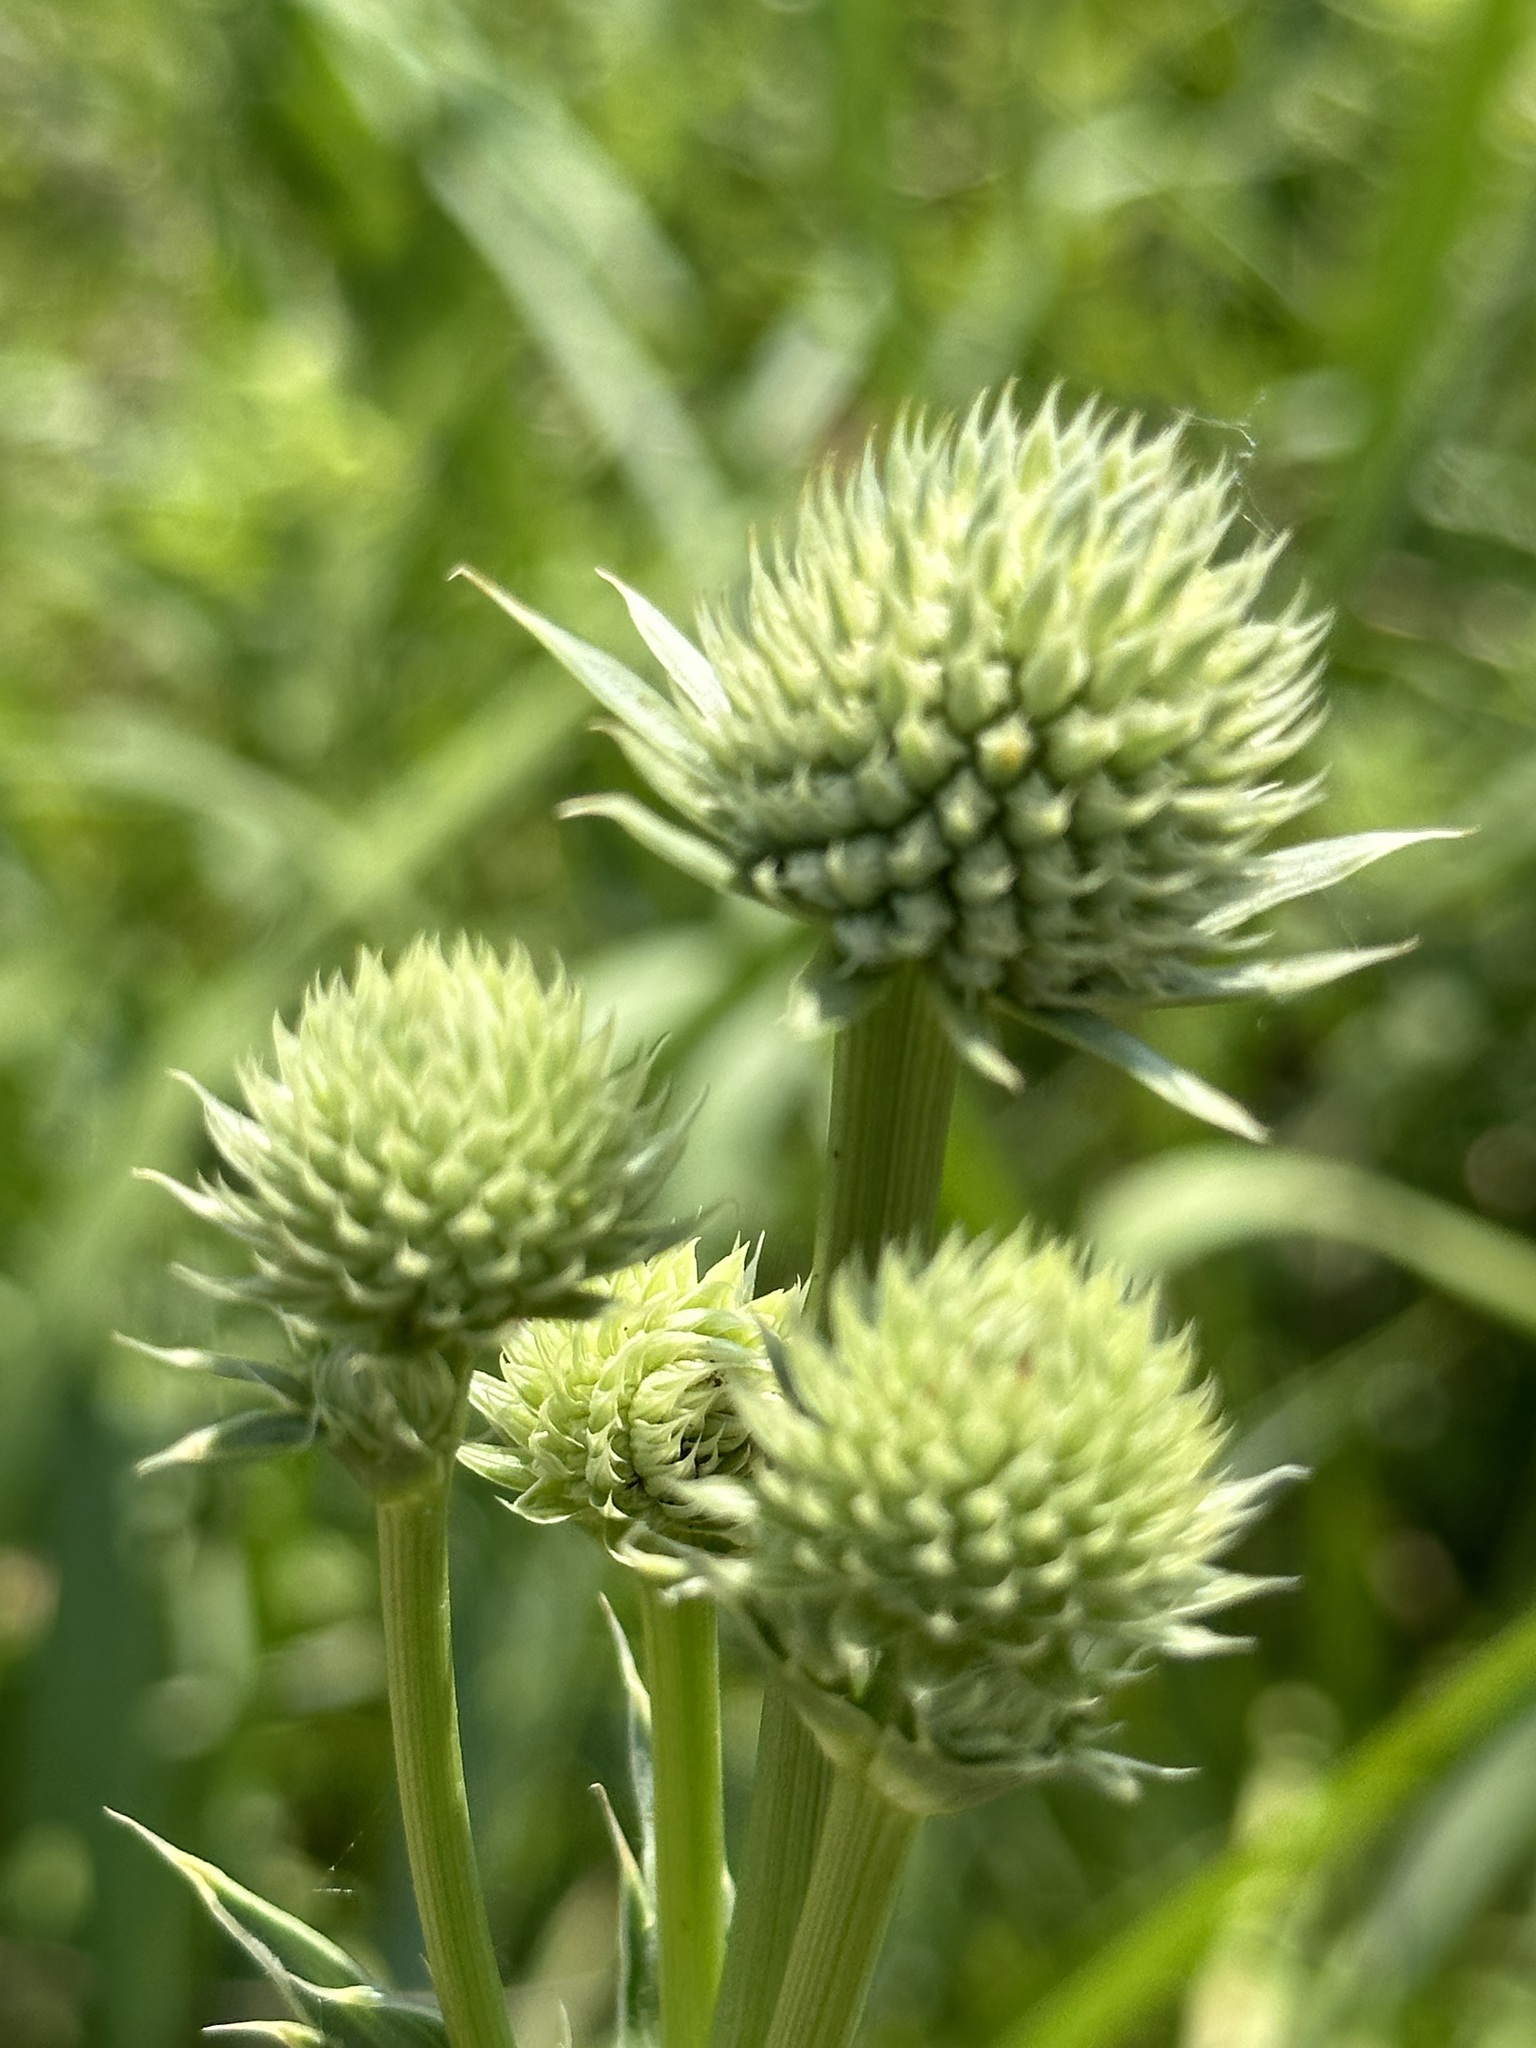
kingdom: Plantae
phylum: Tracheophyta
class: Magnoliopsida
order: Apiales
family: Apiaceae
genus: Eryngium
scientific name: Eryngium yuccifolium
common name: Button eryngo
